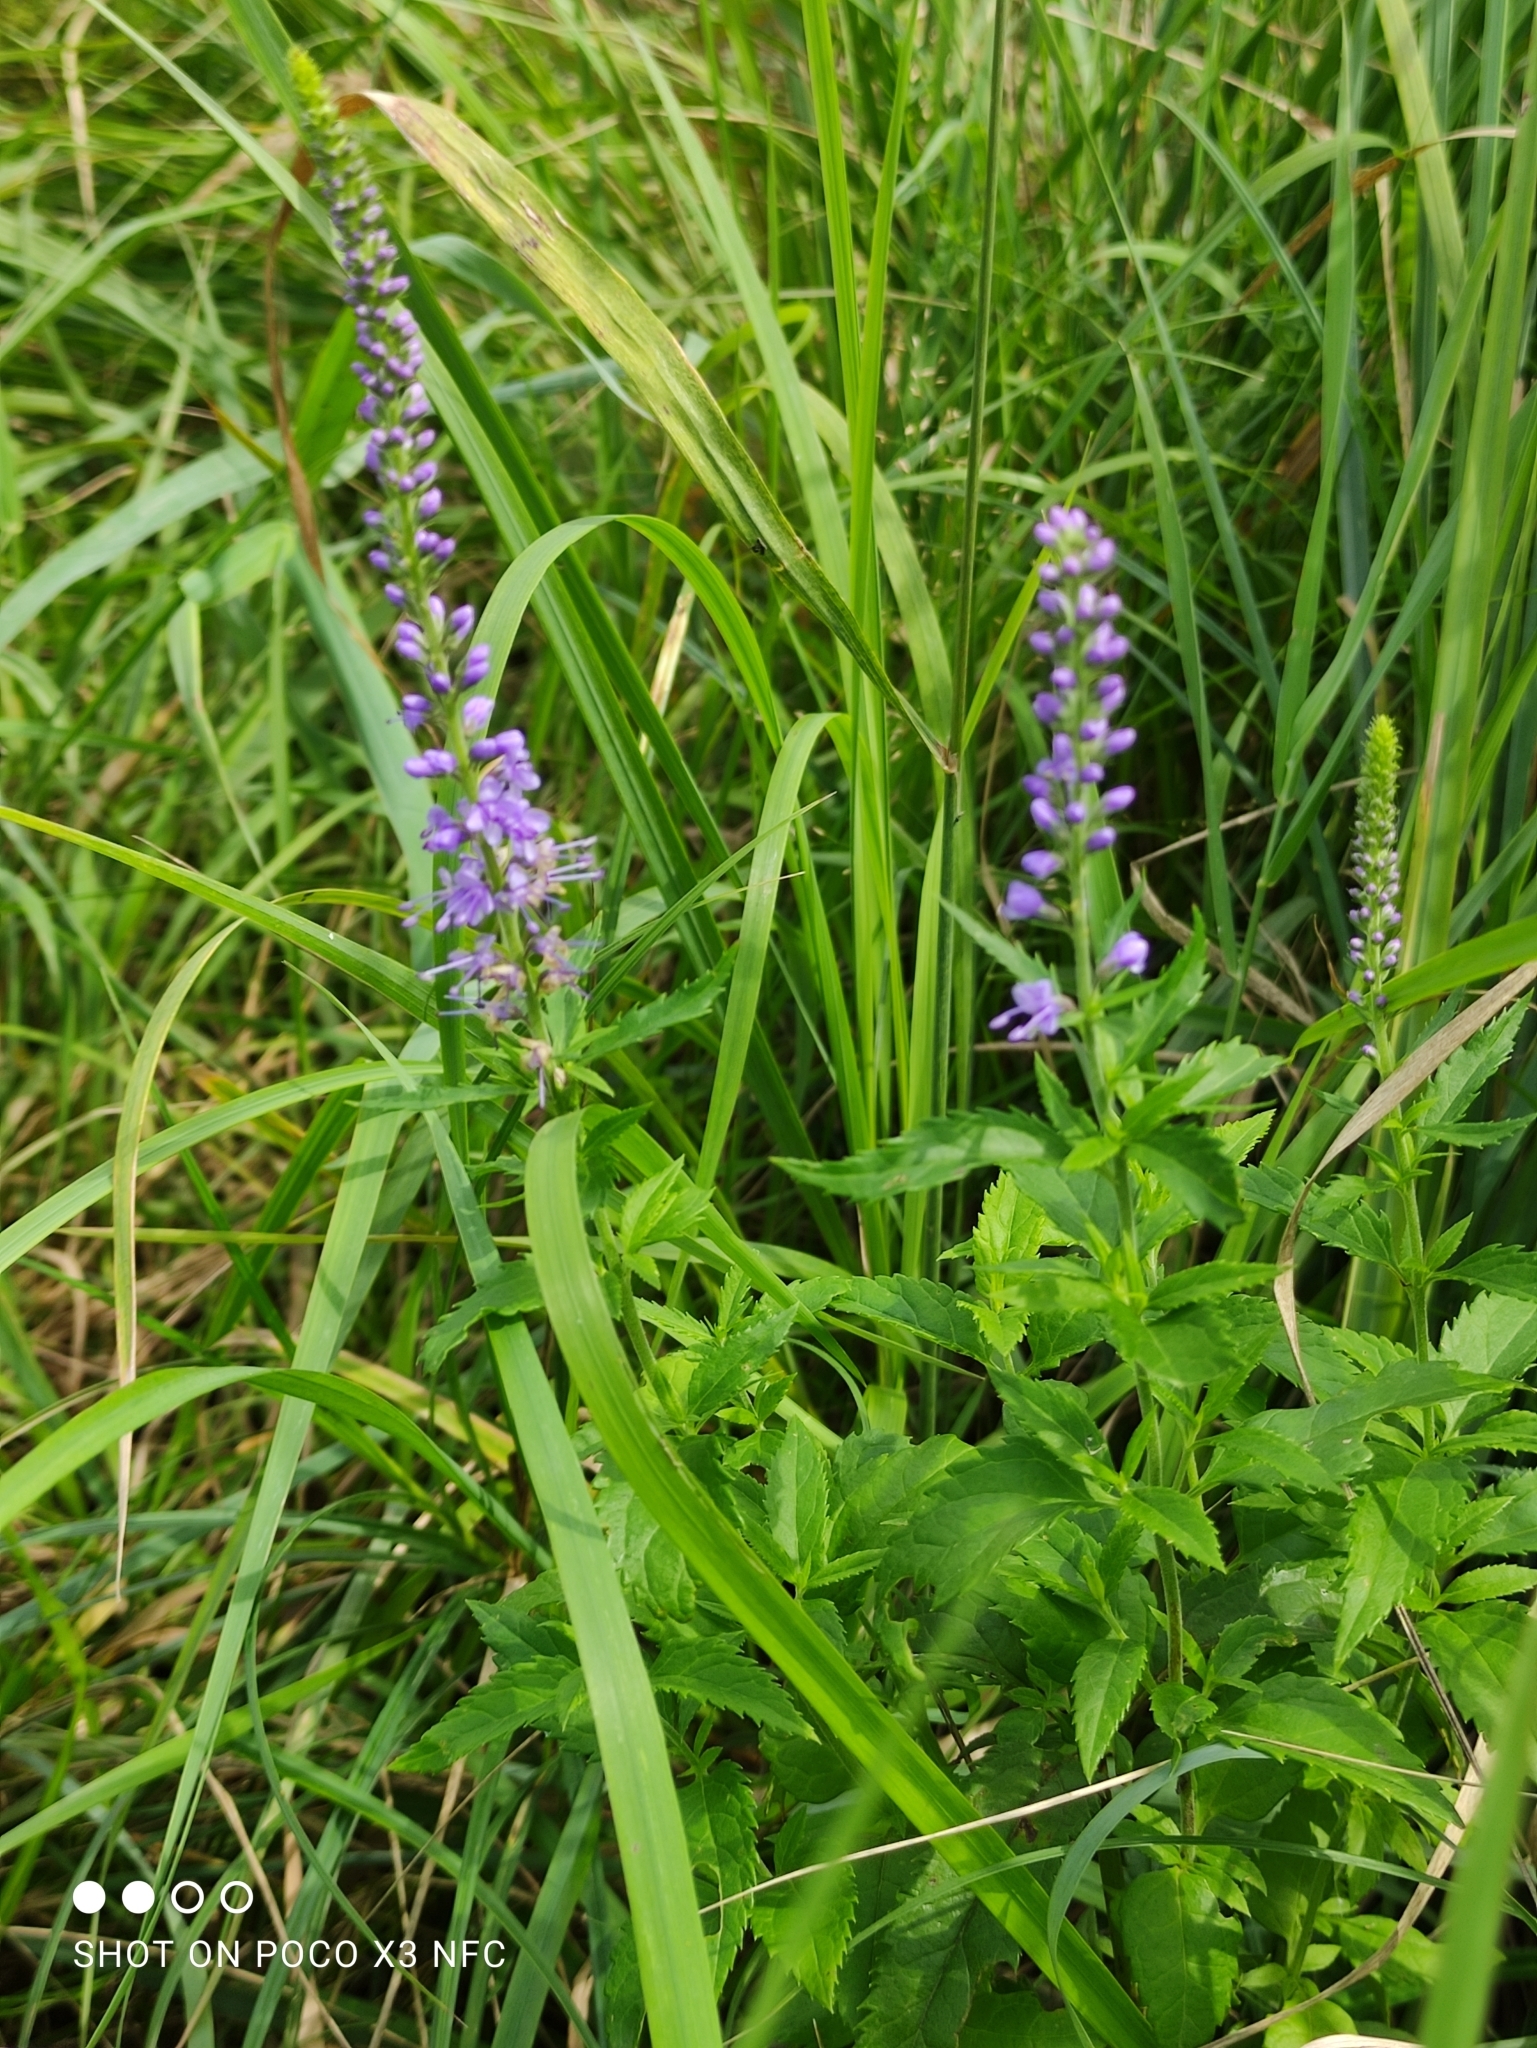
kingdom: Plantae
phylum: Tracheophyta
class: Magnoliopsida
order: Lamiales
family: Plantaginaceae
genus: Veronica
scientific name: Veronica longifolia
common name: Garden speedwell
